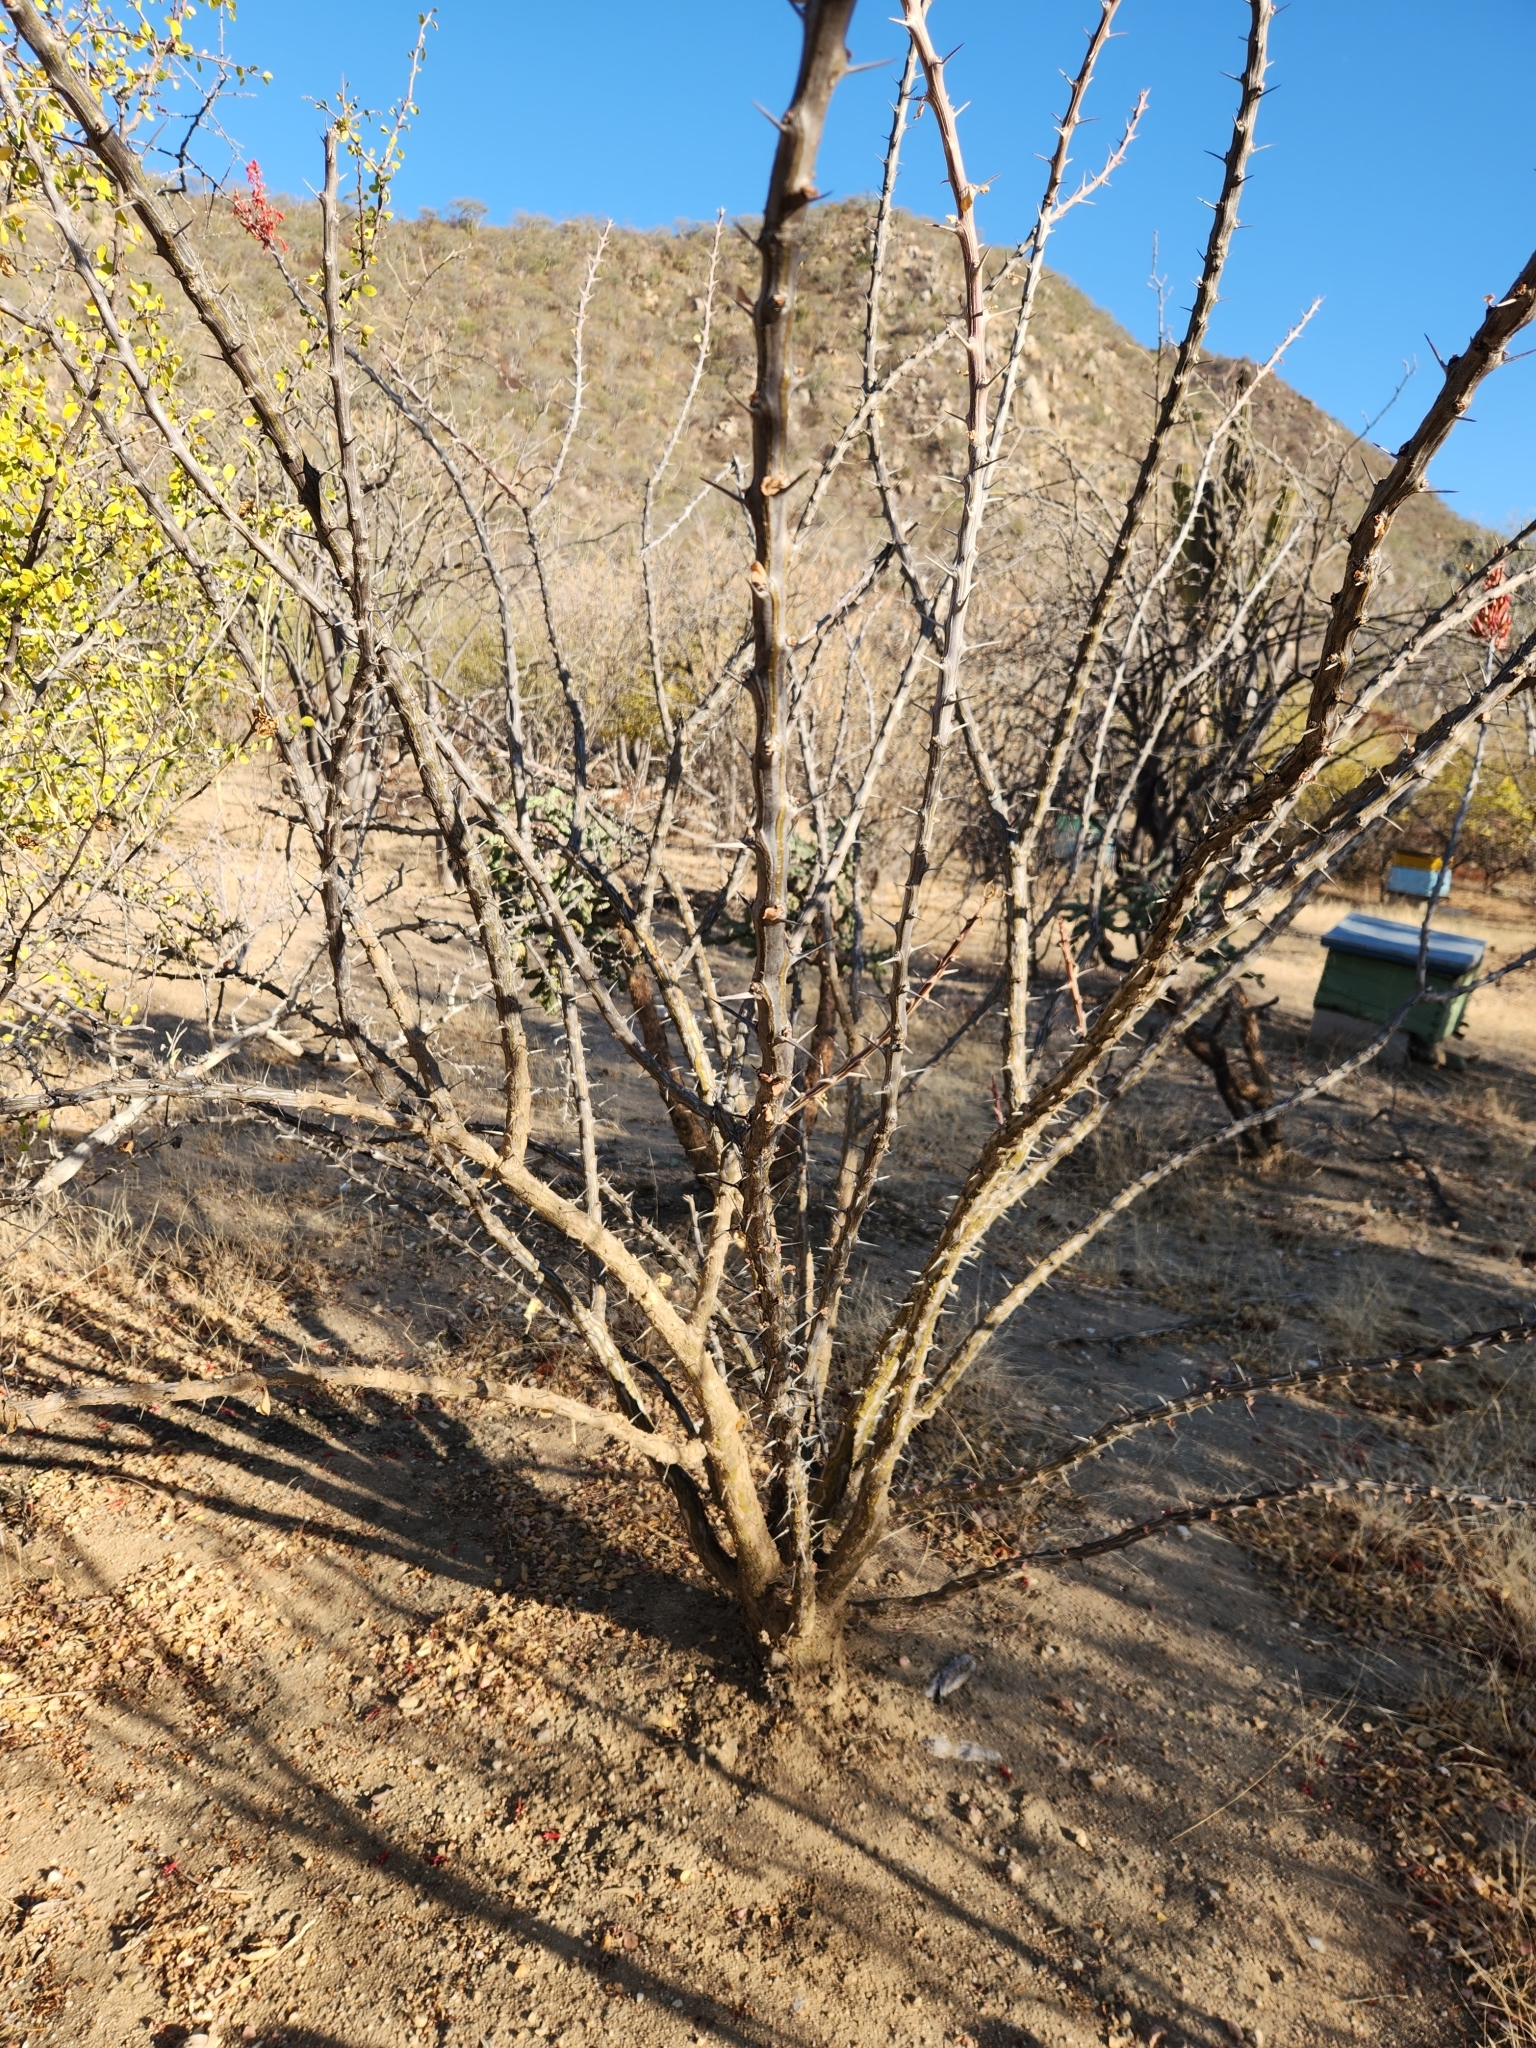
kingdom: Plantae
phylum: Tracheophyta
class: Magnoliopsida
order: Ericales
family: Fouquieriaceae
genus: Fouquieria
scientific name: Fouquieria diguetii
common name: Adam's tree
